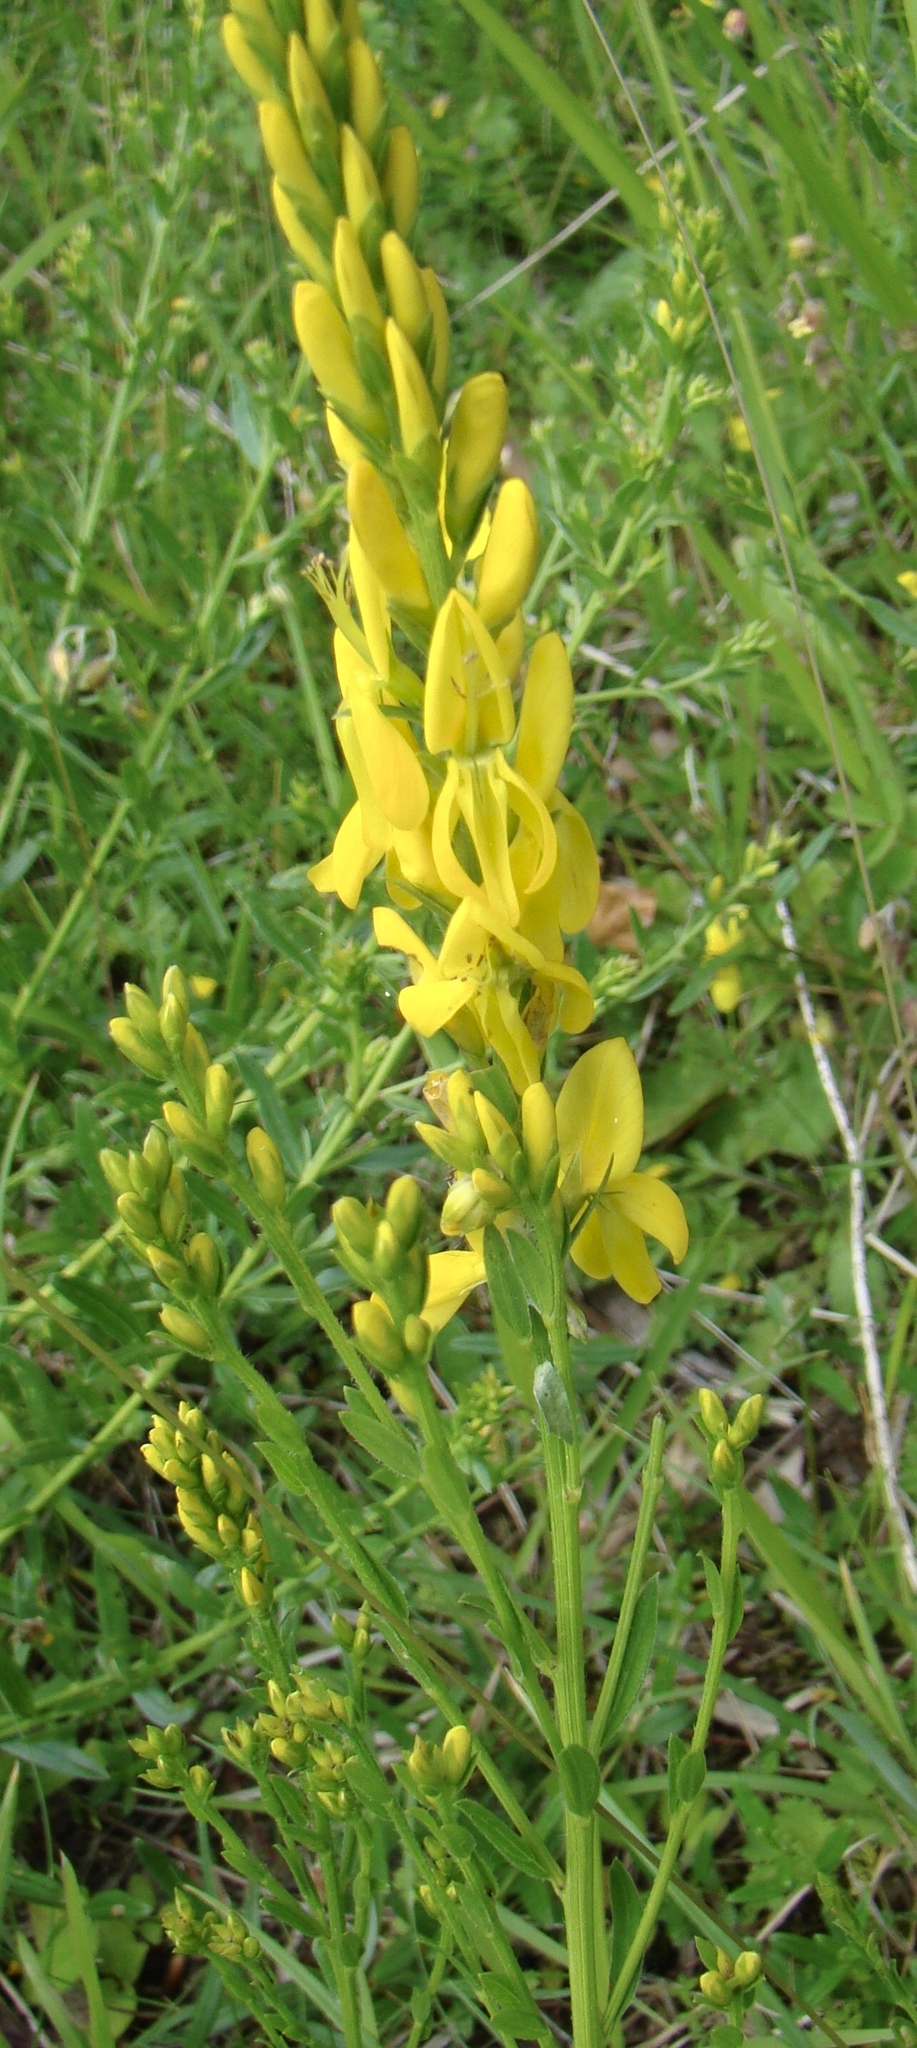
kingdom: Plantae
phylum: Tracheophyta
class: Magnoliopsida
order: Fabales
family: Fabaceae
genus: Genista
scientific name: Genista tinctoria
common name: Dyer's greenweed
